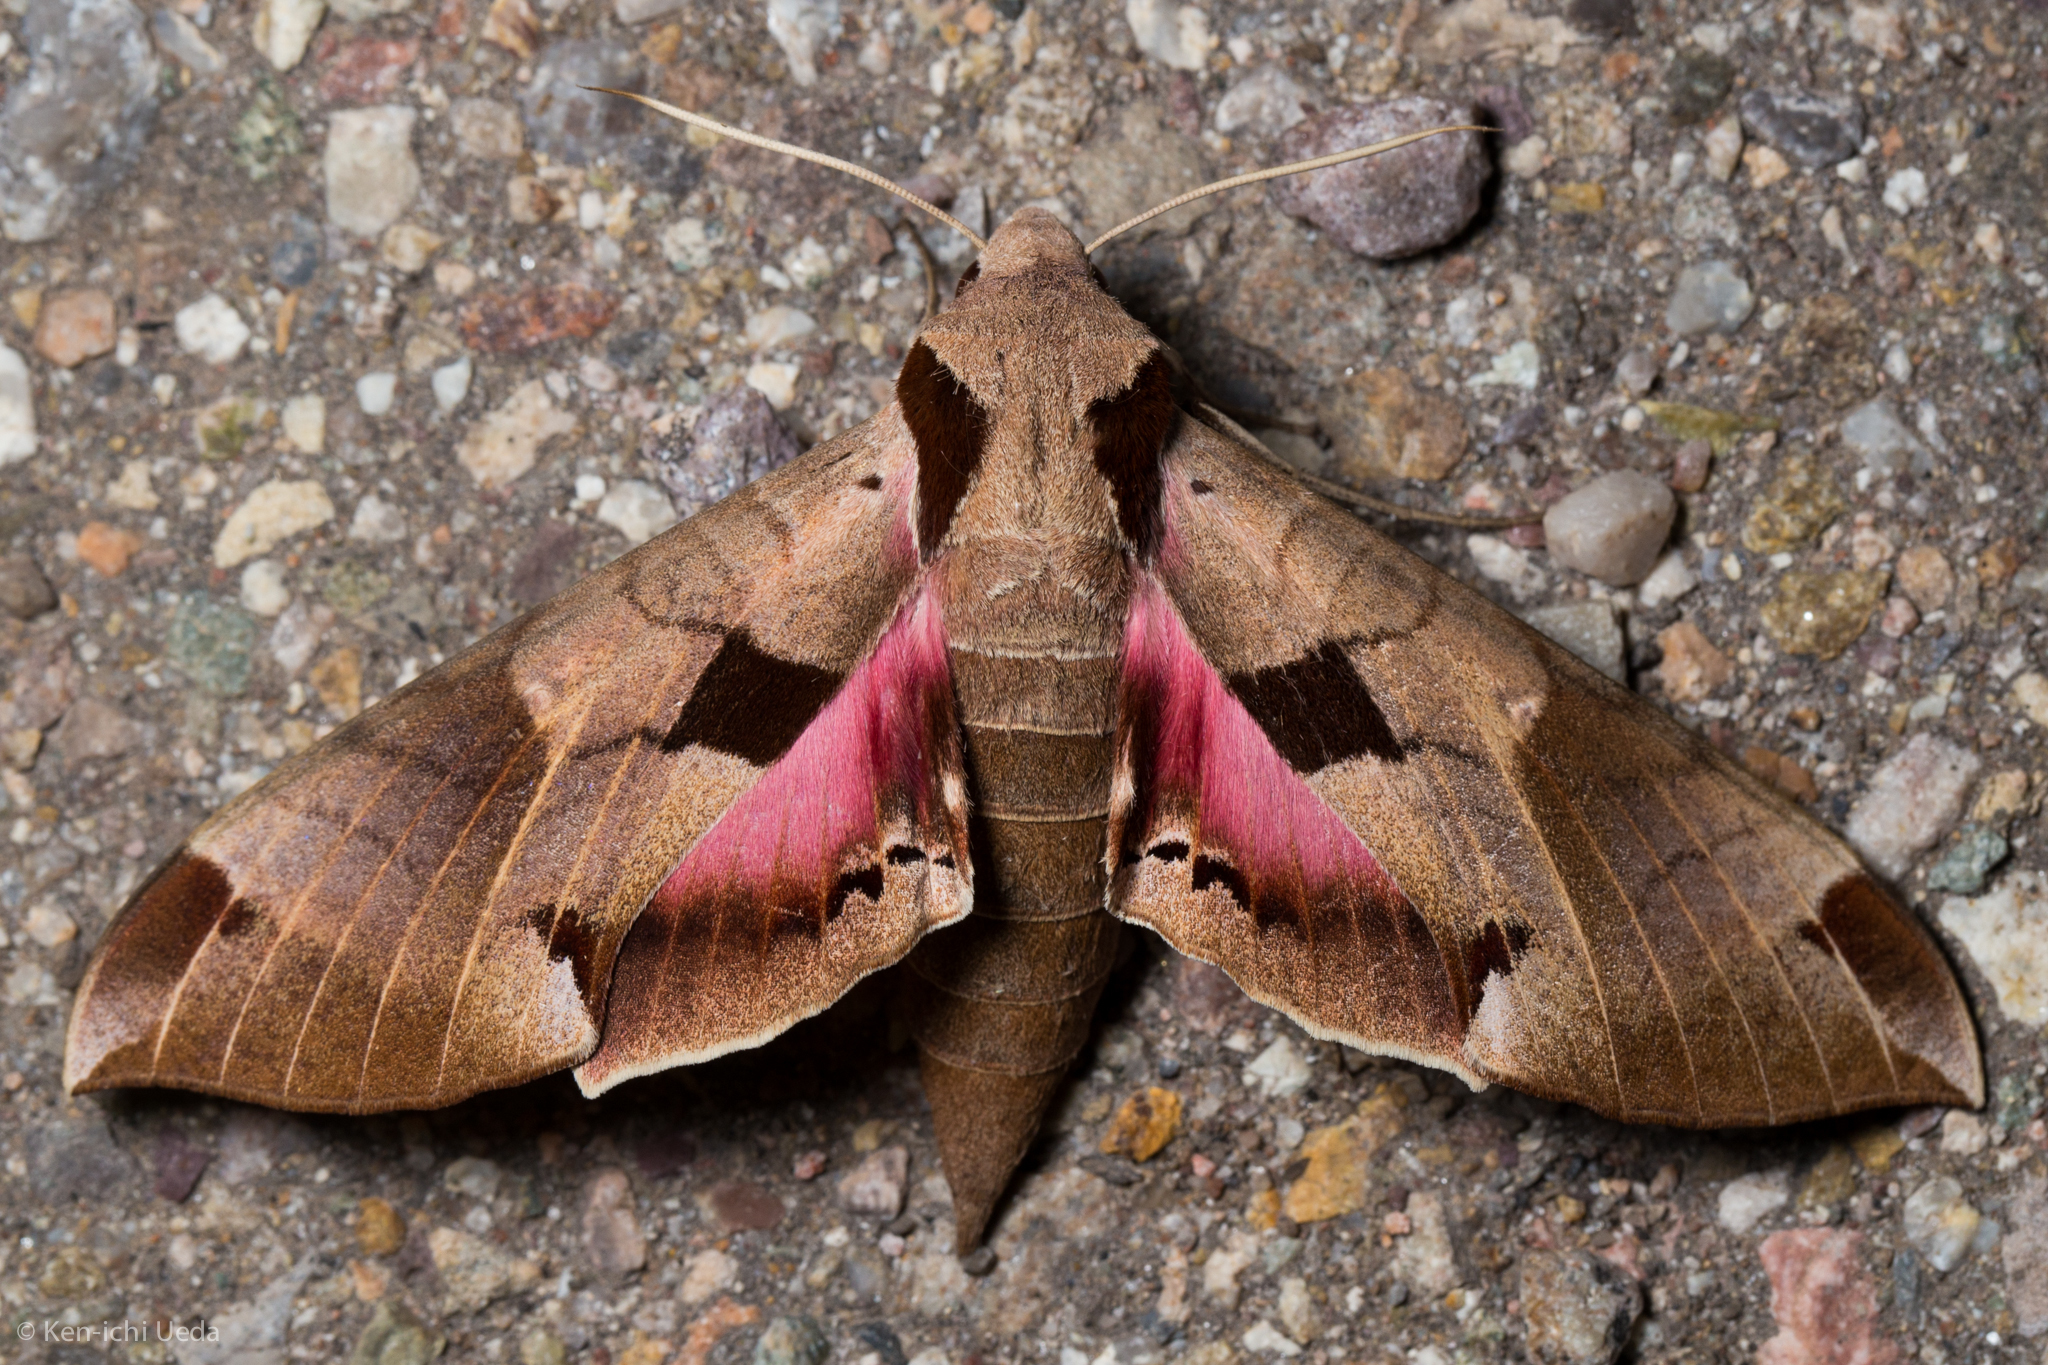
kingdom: Animalia
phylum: Arthropoda
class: Insecta
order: Lepidoptera
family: Sphingidae
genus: Eumorpha
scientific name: Eumorpha achemon
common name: Achemon sphinx
